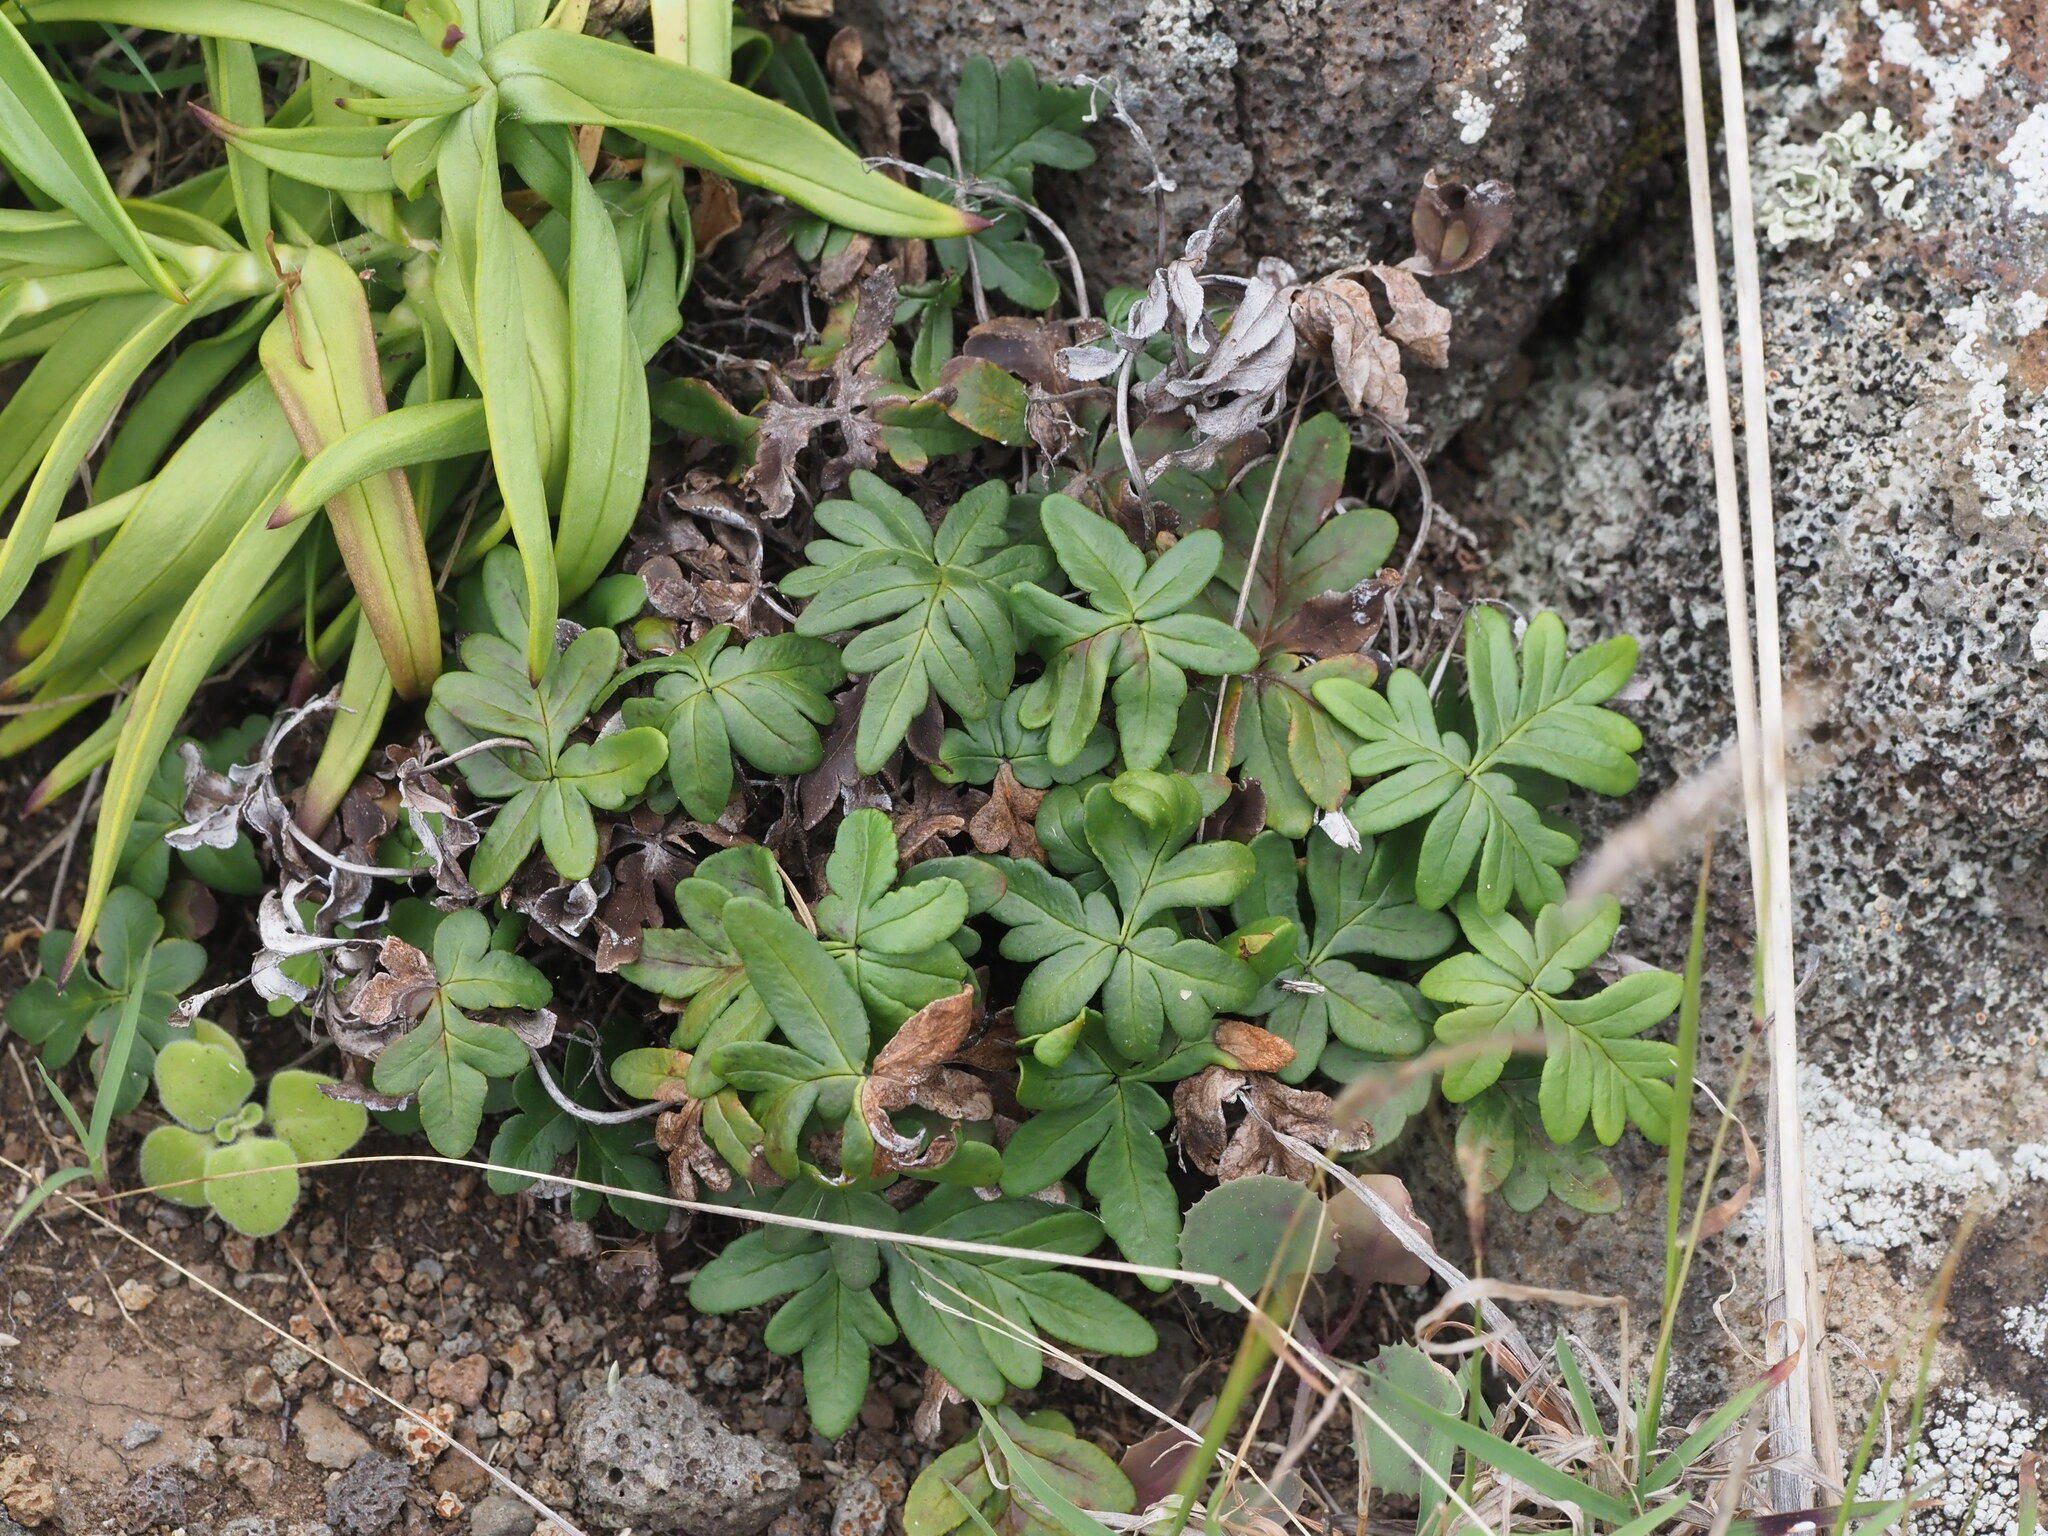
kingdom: Plantae
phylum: Tracheophyta
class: Polypodiopsida
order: Polypodiales
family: Pteridaceae
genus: Doryopteris
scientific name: Doryopteris decipiens
